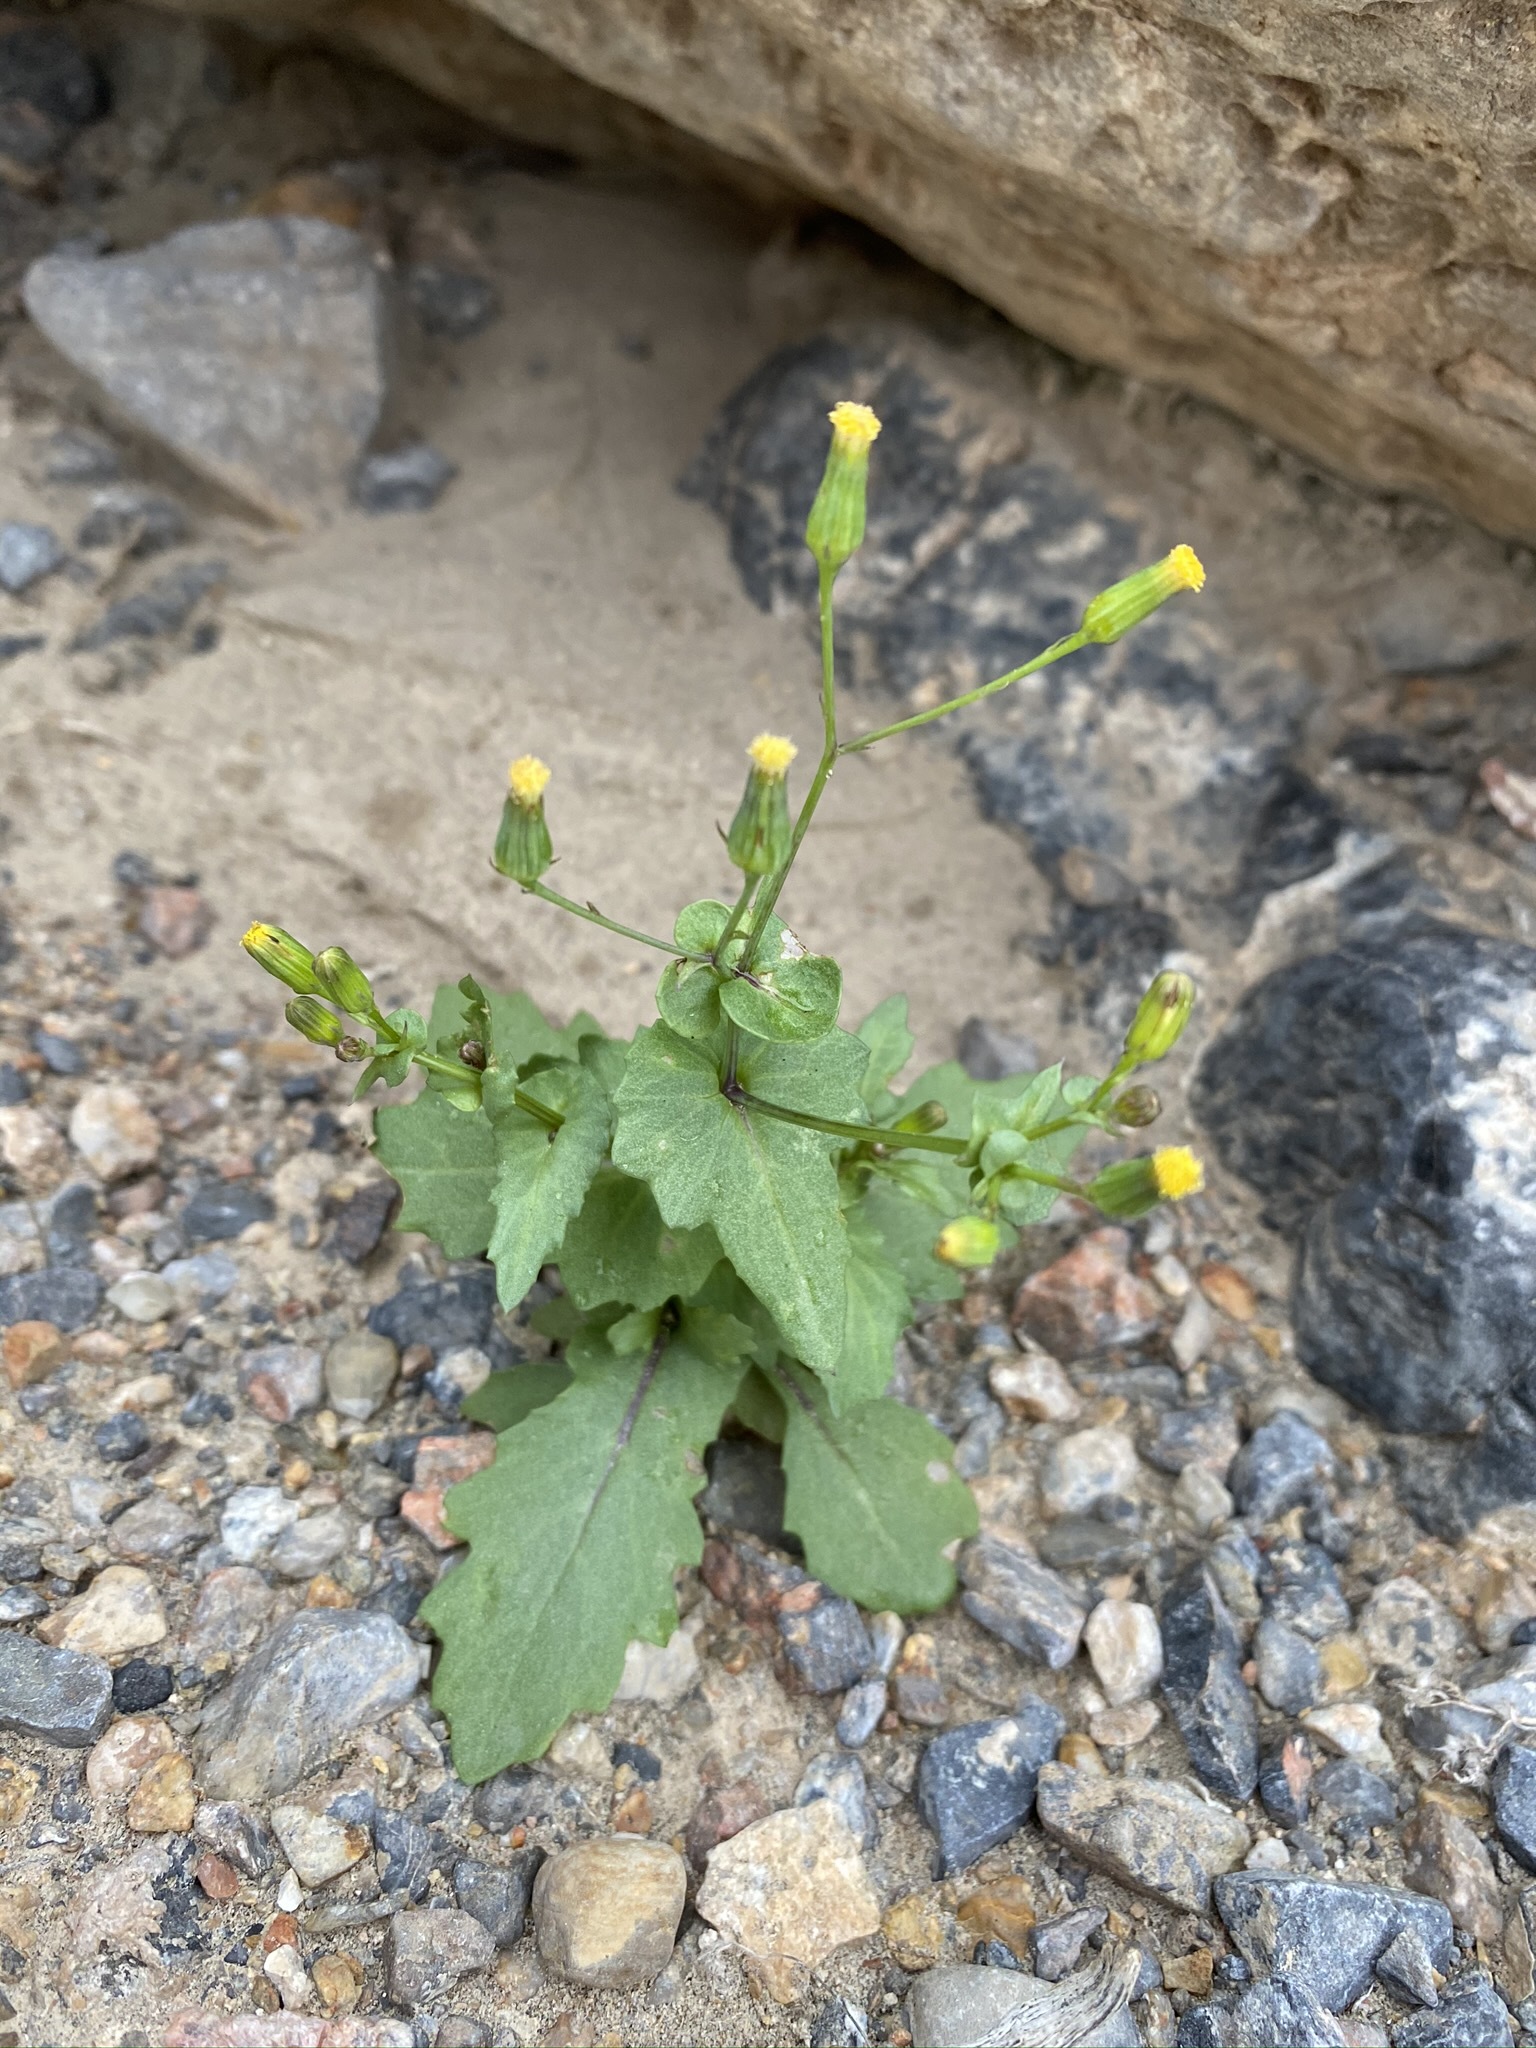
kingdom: Plantae
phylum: Tracheophyta
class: Magnoliopsida
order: Asterales
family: Asteraceae
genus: Senecio
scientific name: Senecio mohavensis
